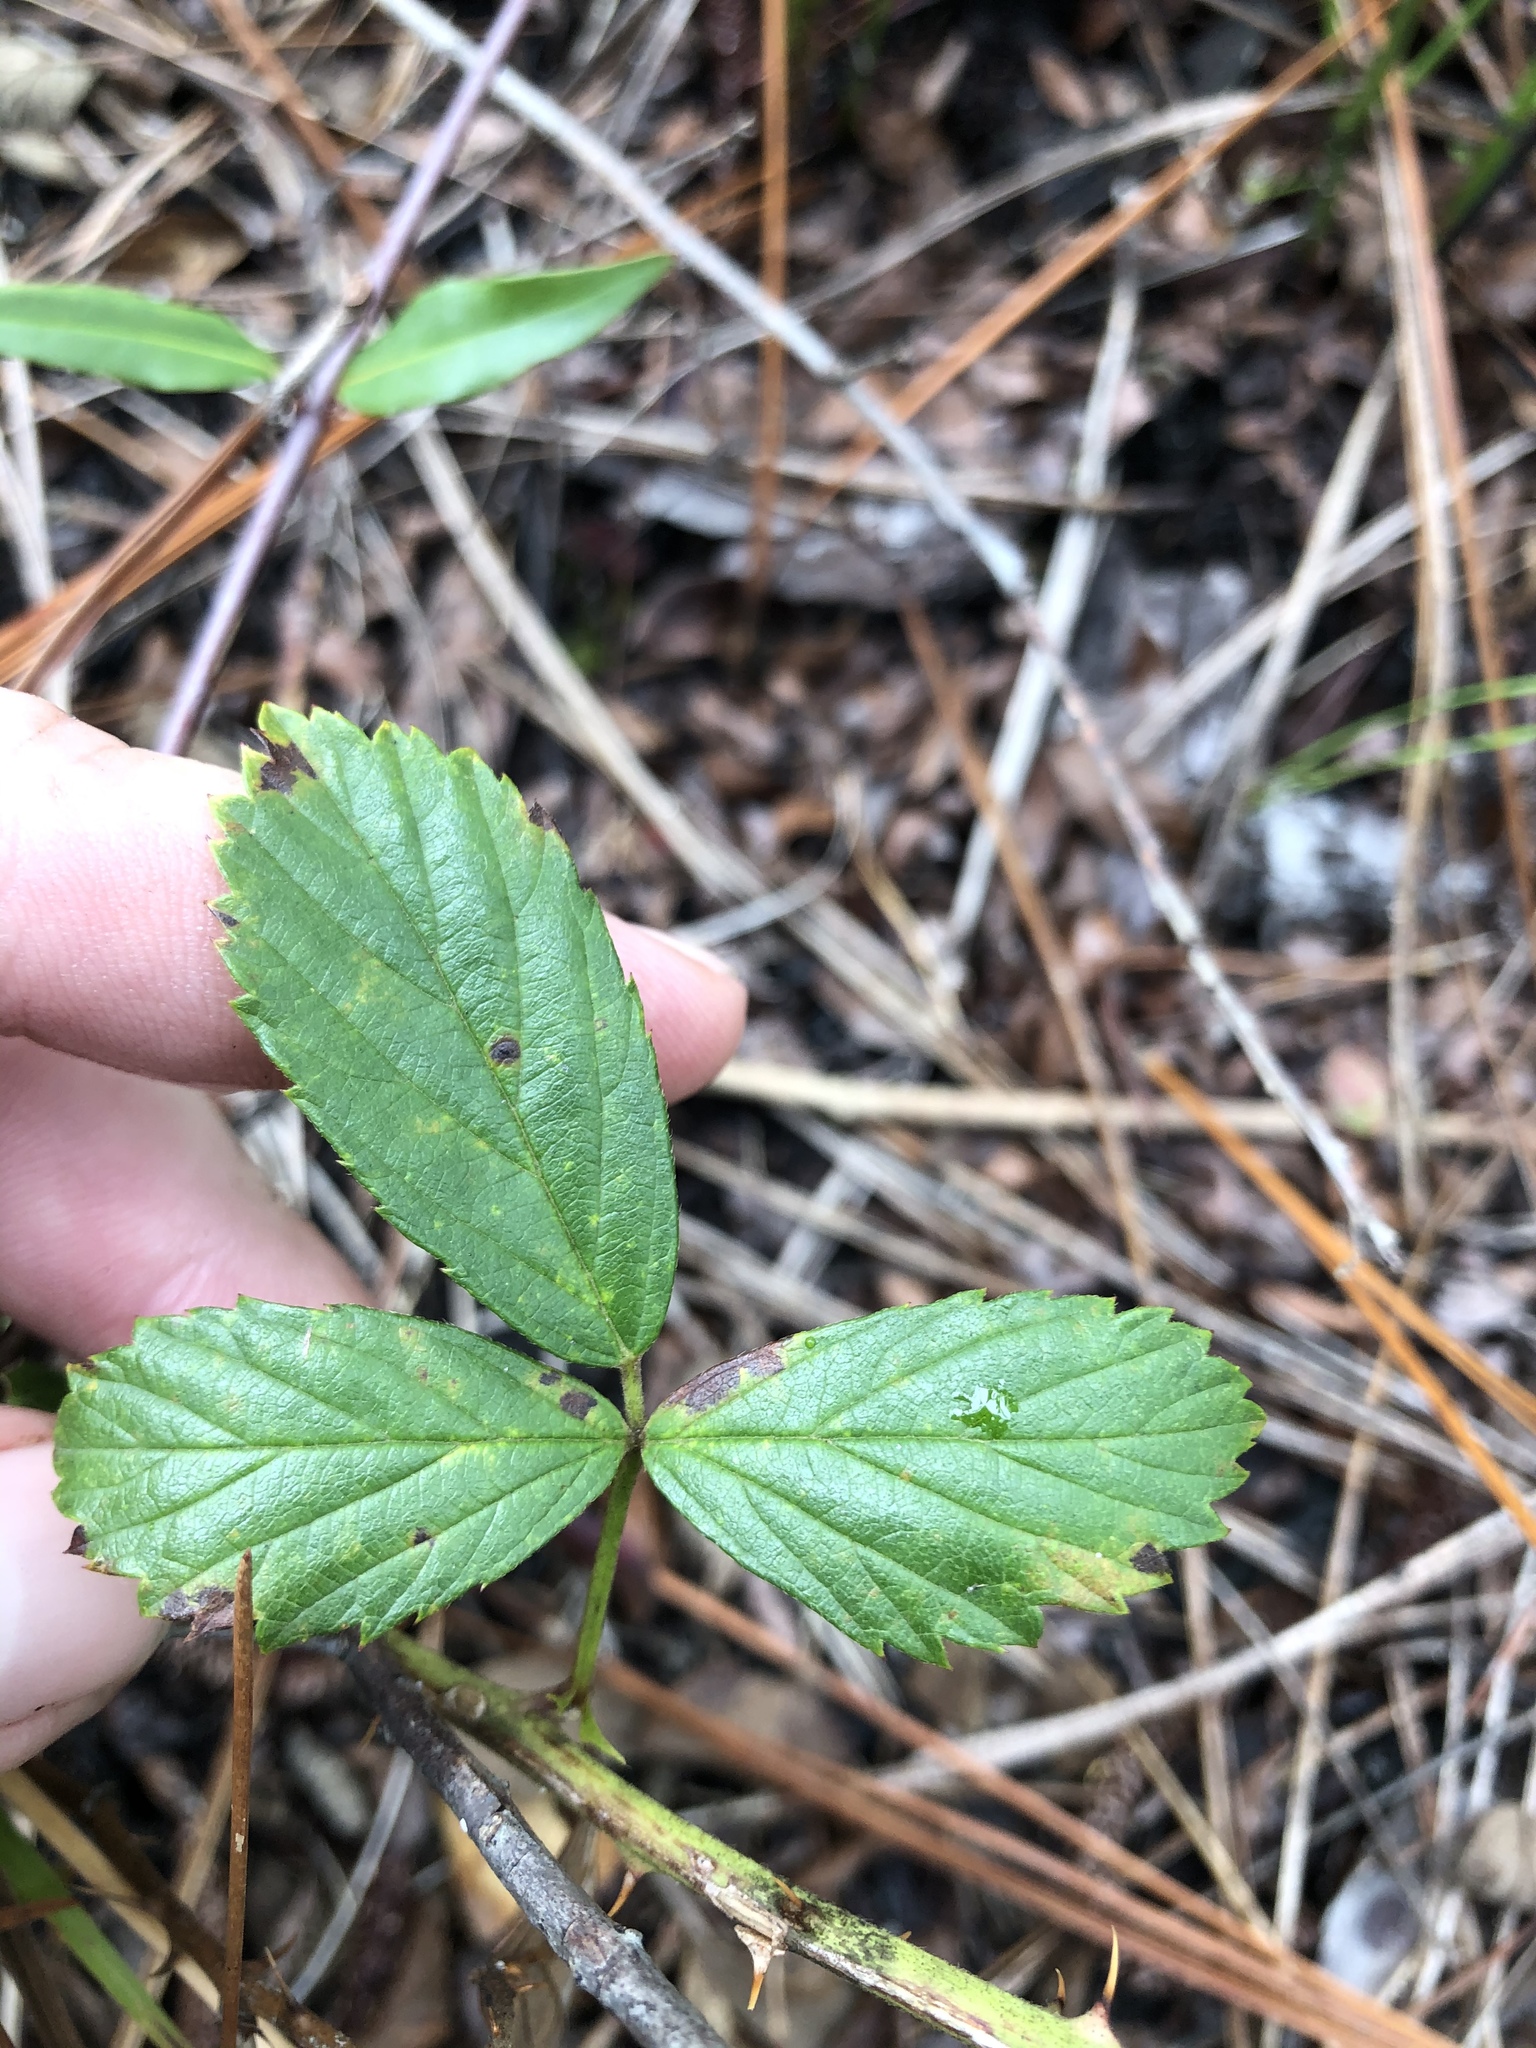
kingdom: Plantae
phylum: Tracheophyta
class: Magnoliopsida
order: Rosales
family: Rosaceae
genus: Rubus
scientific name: Rubus cuneifolius
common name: American bramble
